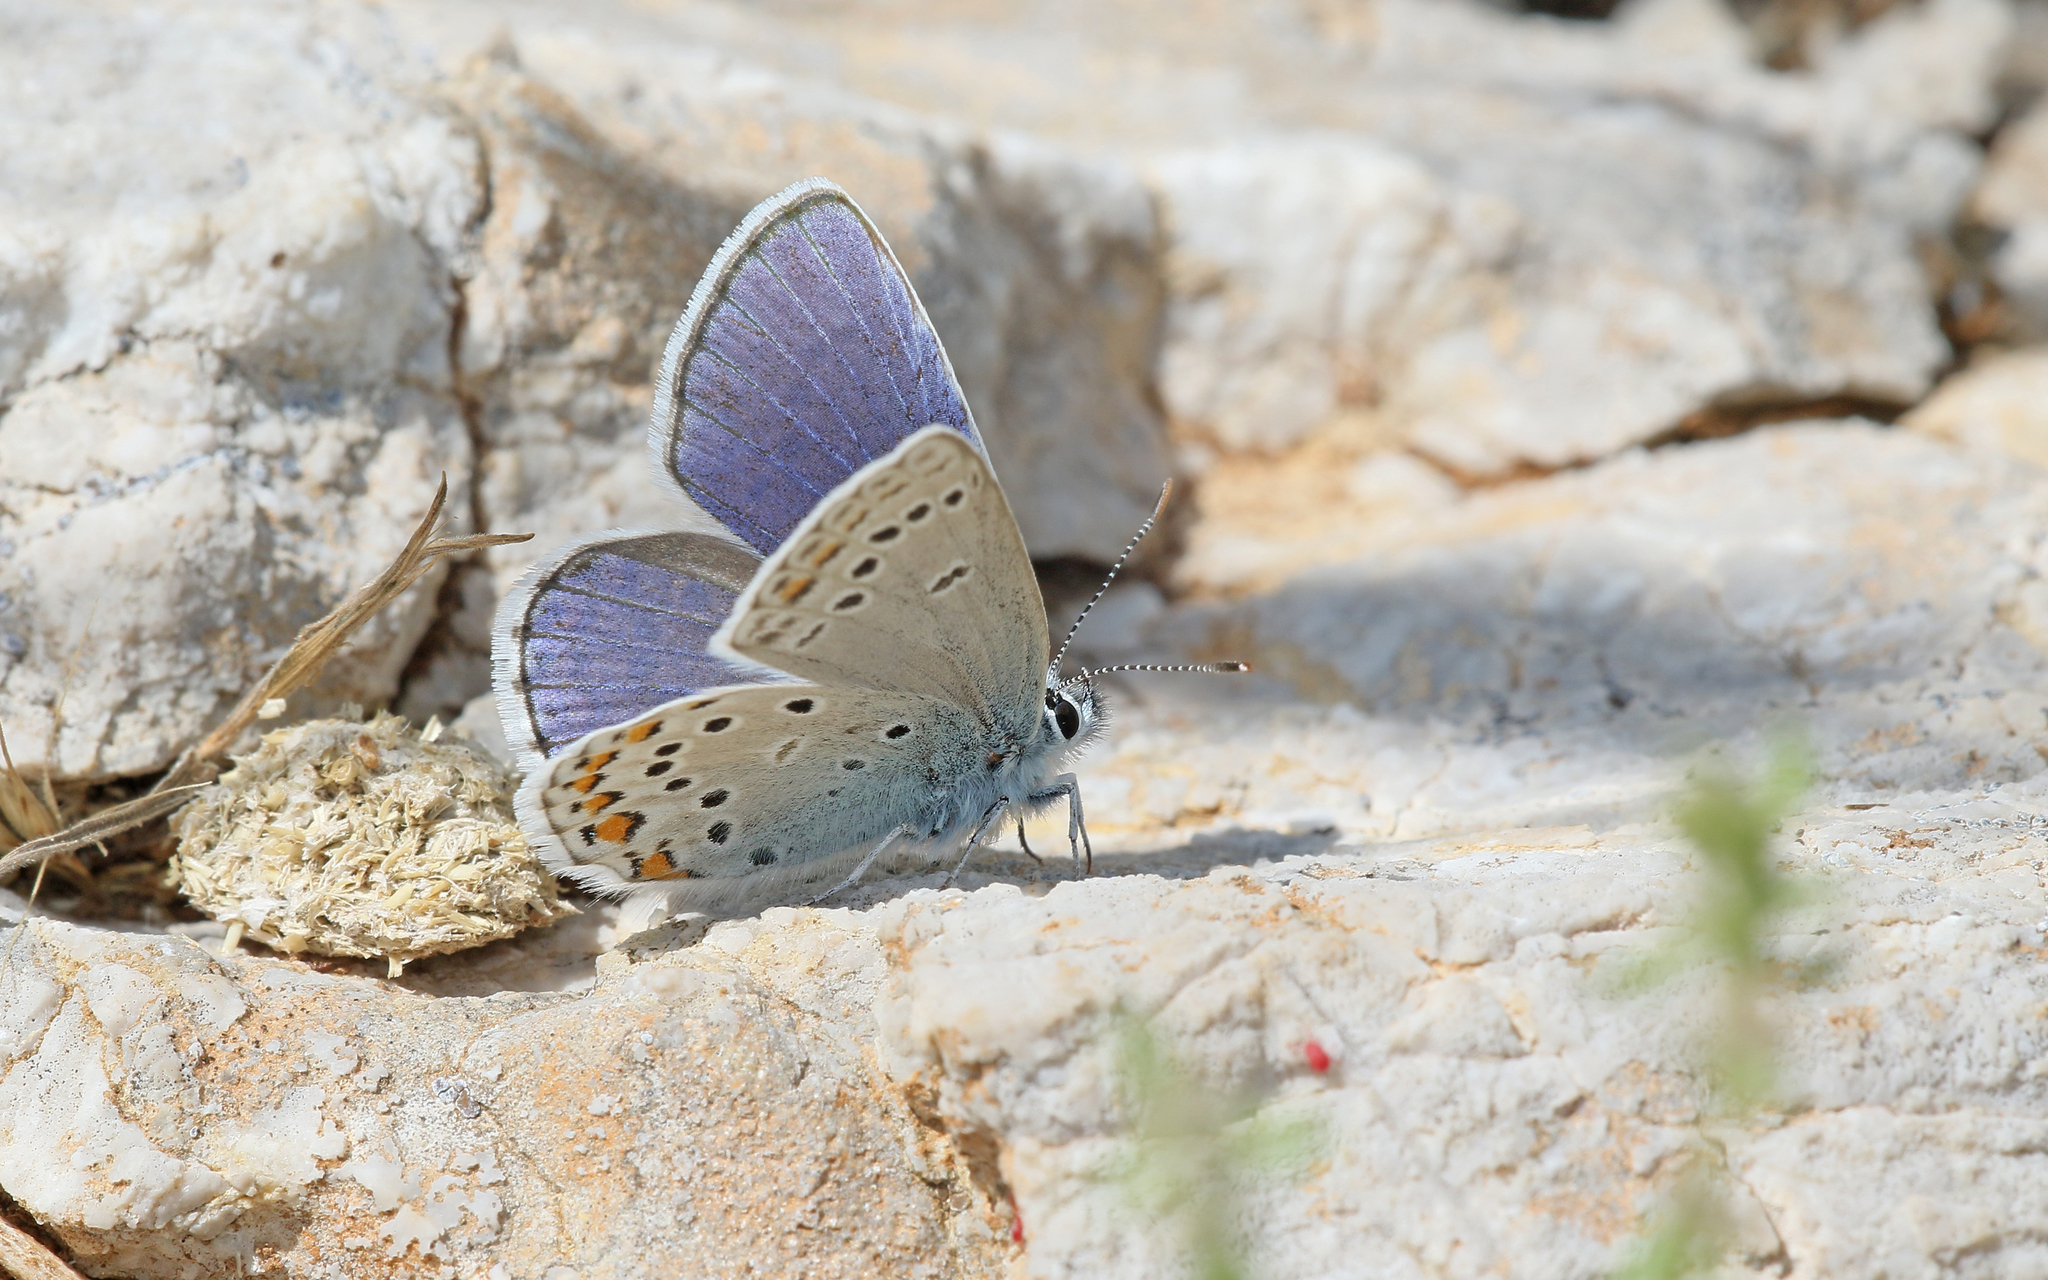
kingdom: Animalia
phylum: Arthropoda
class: Insecta
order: Lepidoptera
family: Lycaenidae
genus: Plebejus
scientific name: Plebejus pylaon
